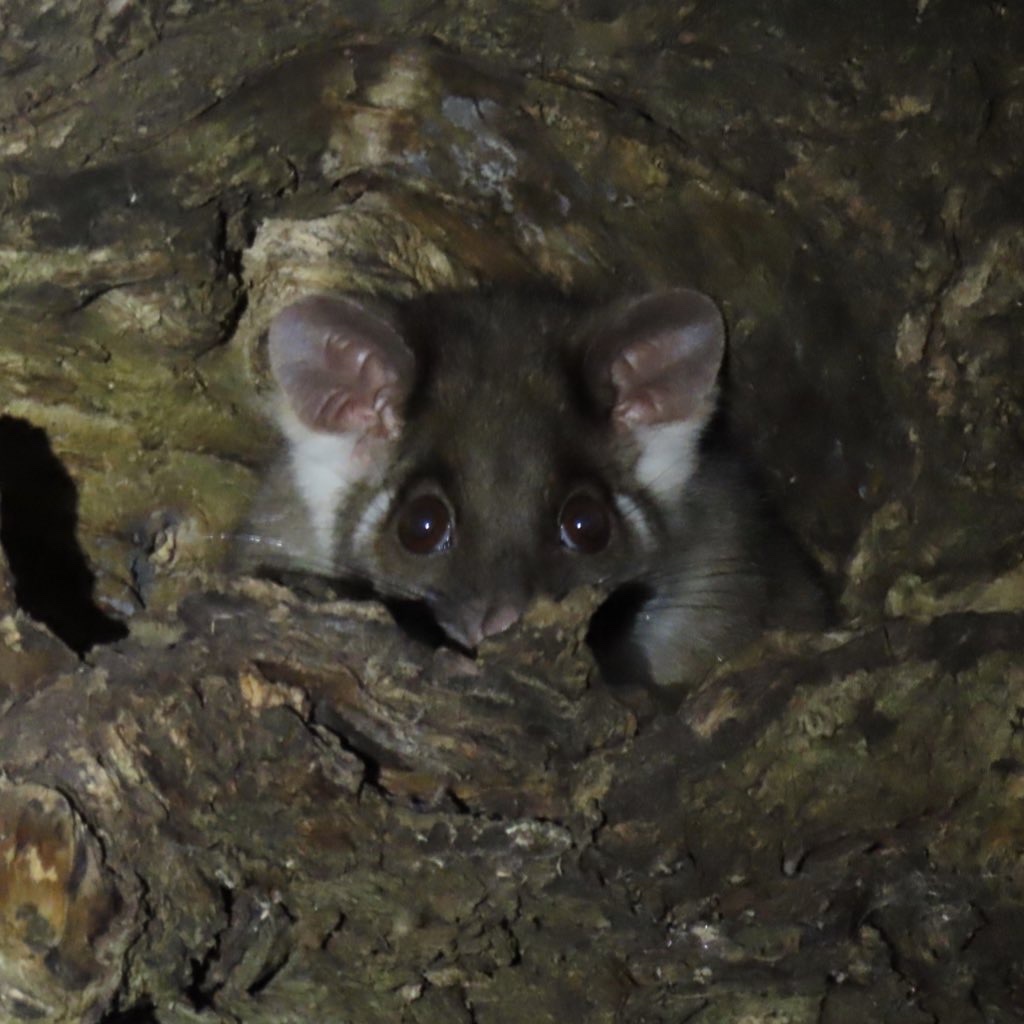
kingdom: Animalia
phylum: Chordata
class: Mammalia
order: Diprotodontia
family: Pseudocheiridae
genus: Pseudocheirus
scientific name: Pseudocheirus peregrinus
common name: Common ringtail possum
